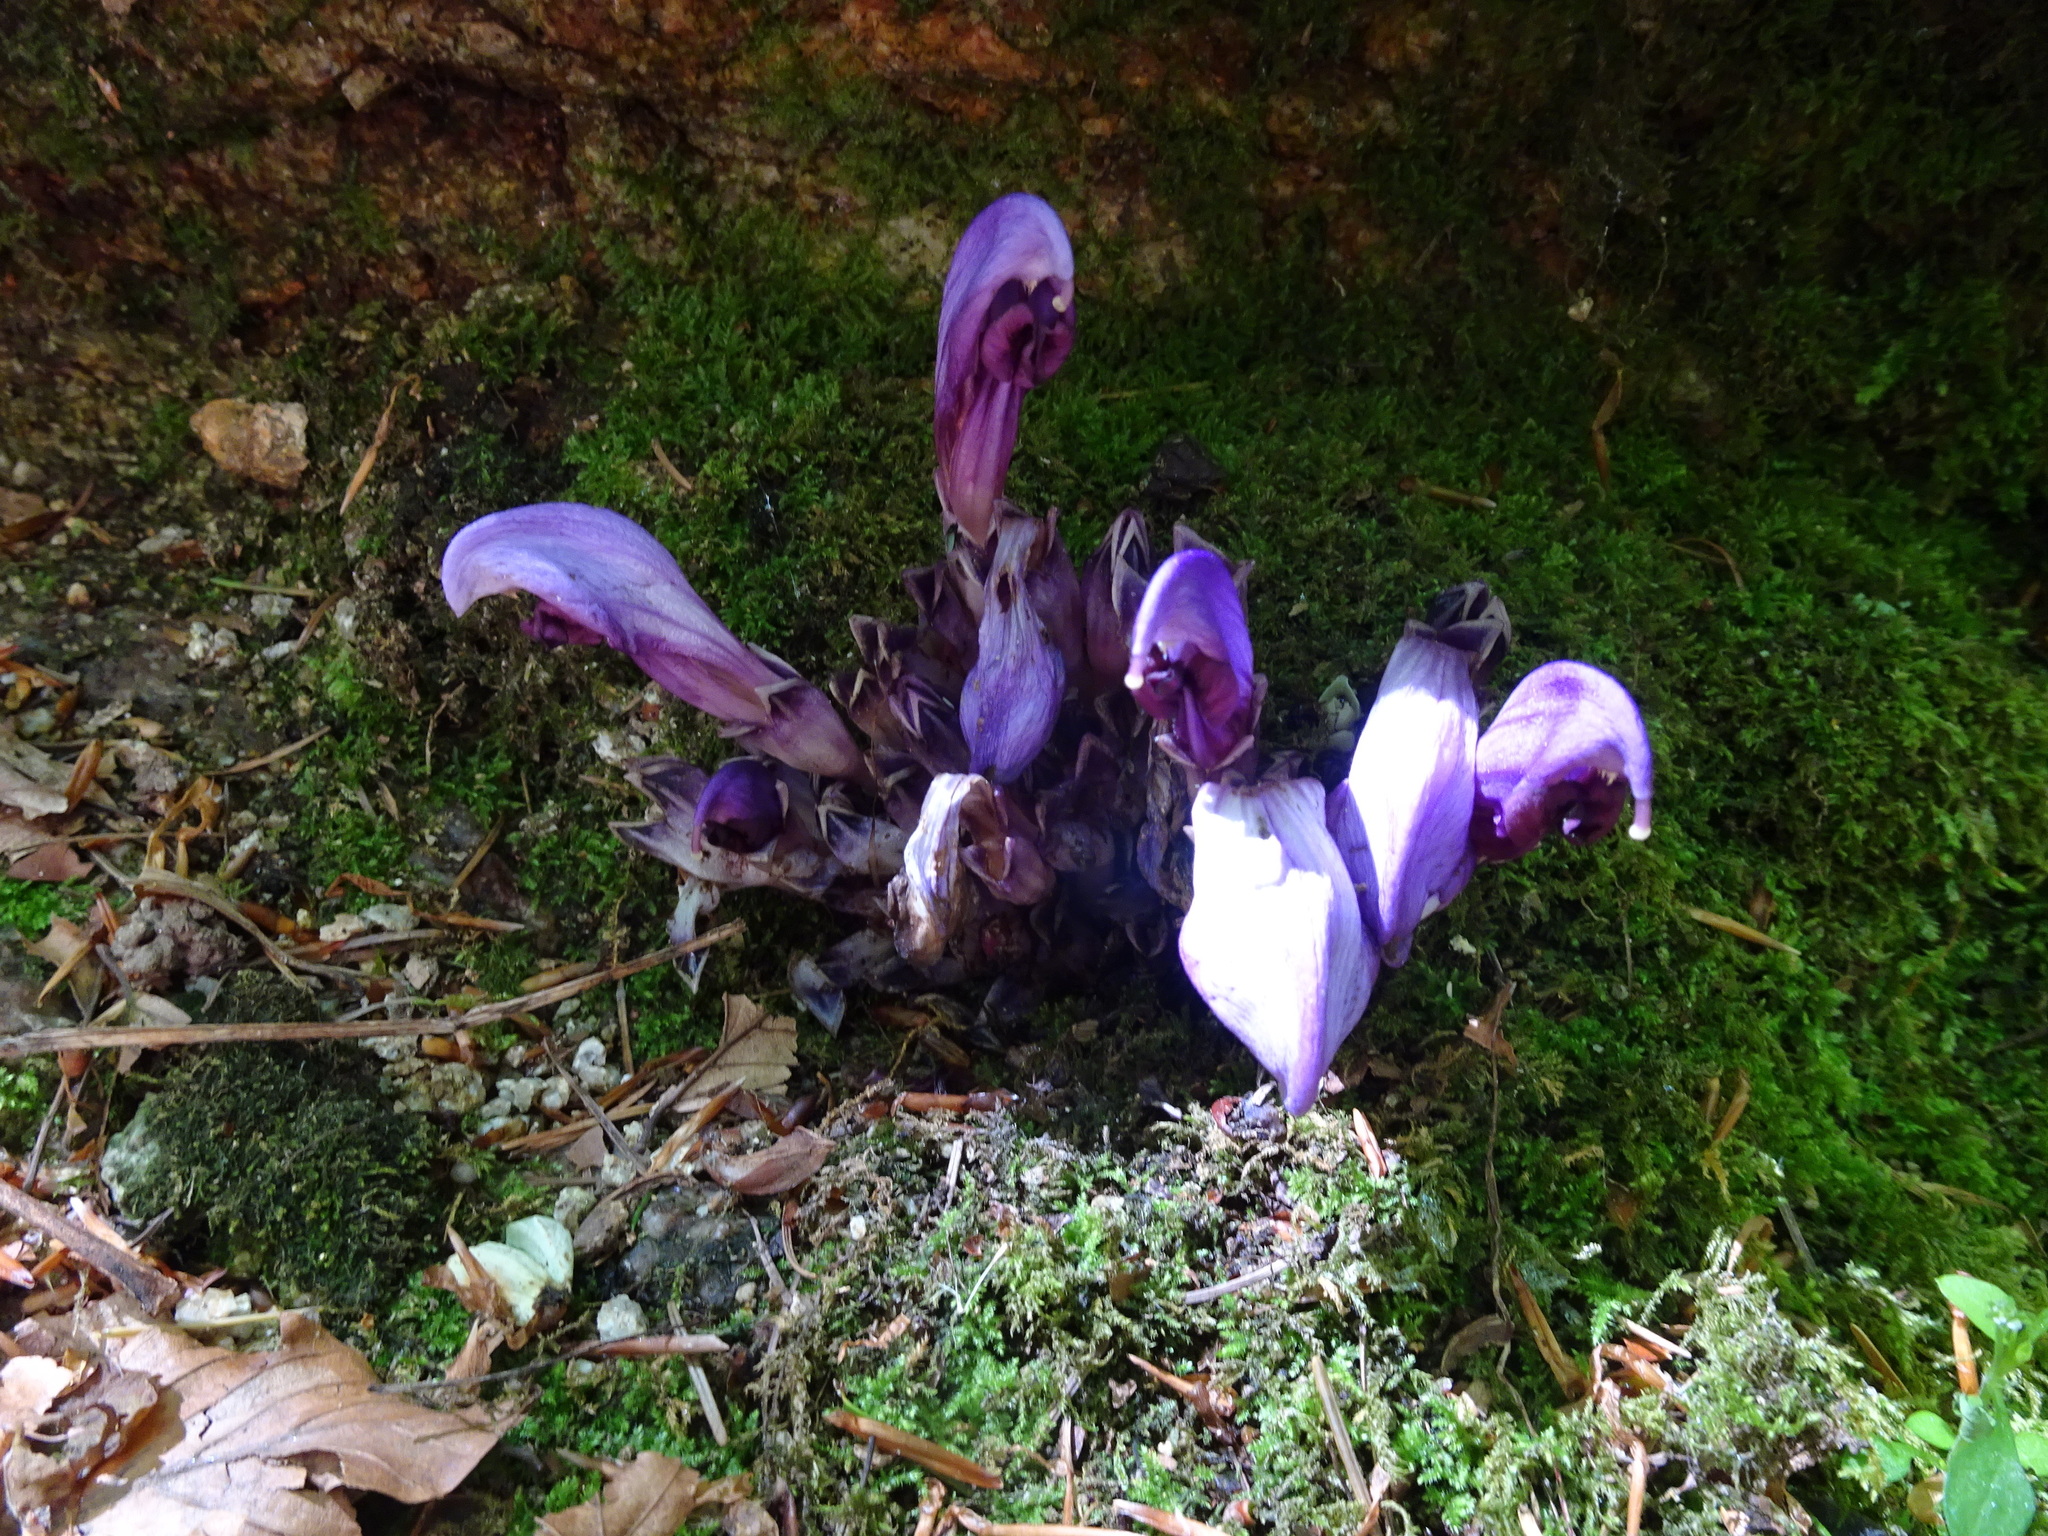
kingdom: Plantae
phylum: Tracheophyta
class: Magnoliopsida
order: Lamiales
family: Orobanchaceae
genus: Lathraea
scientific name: Lathraea clandestina
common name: Purple toothwort
